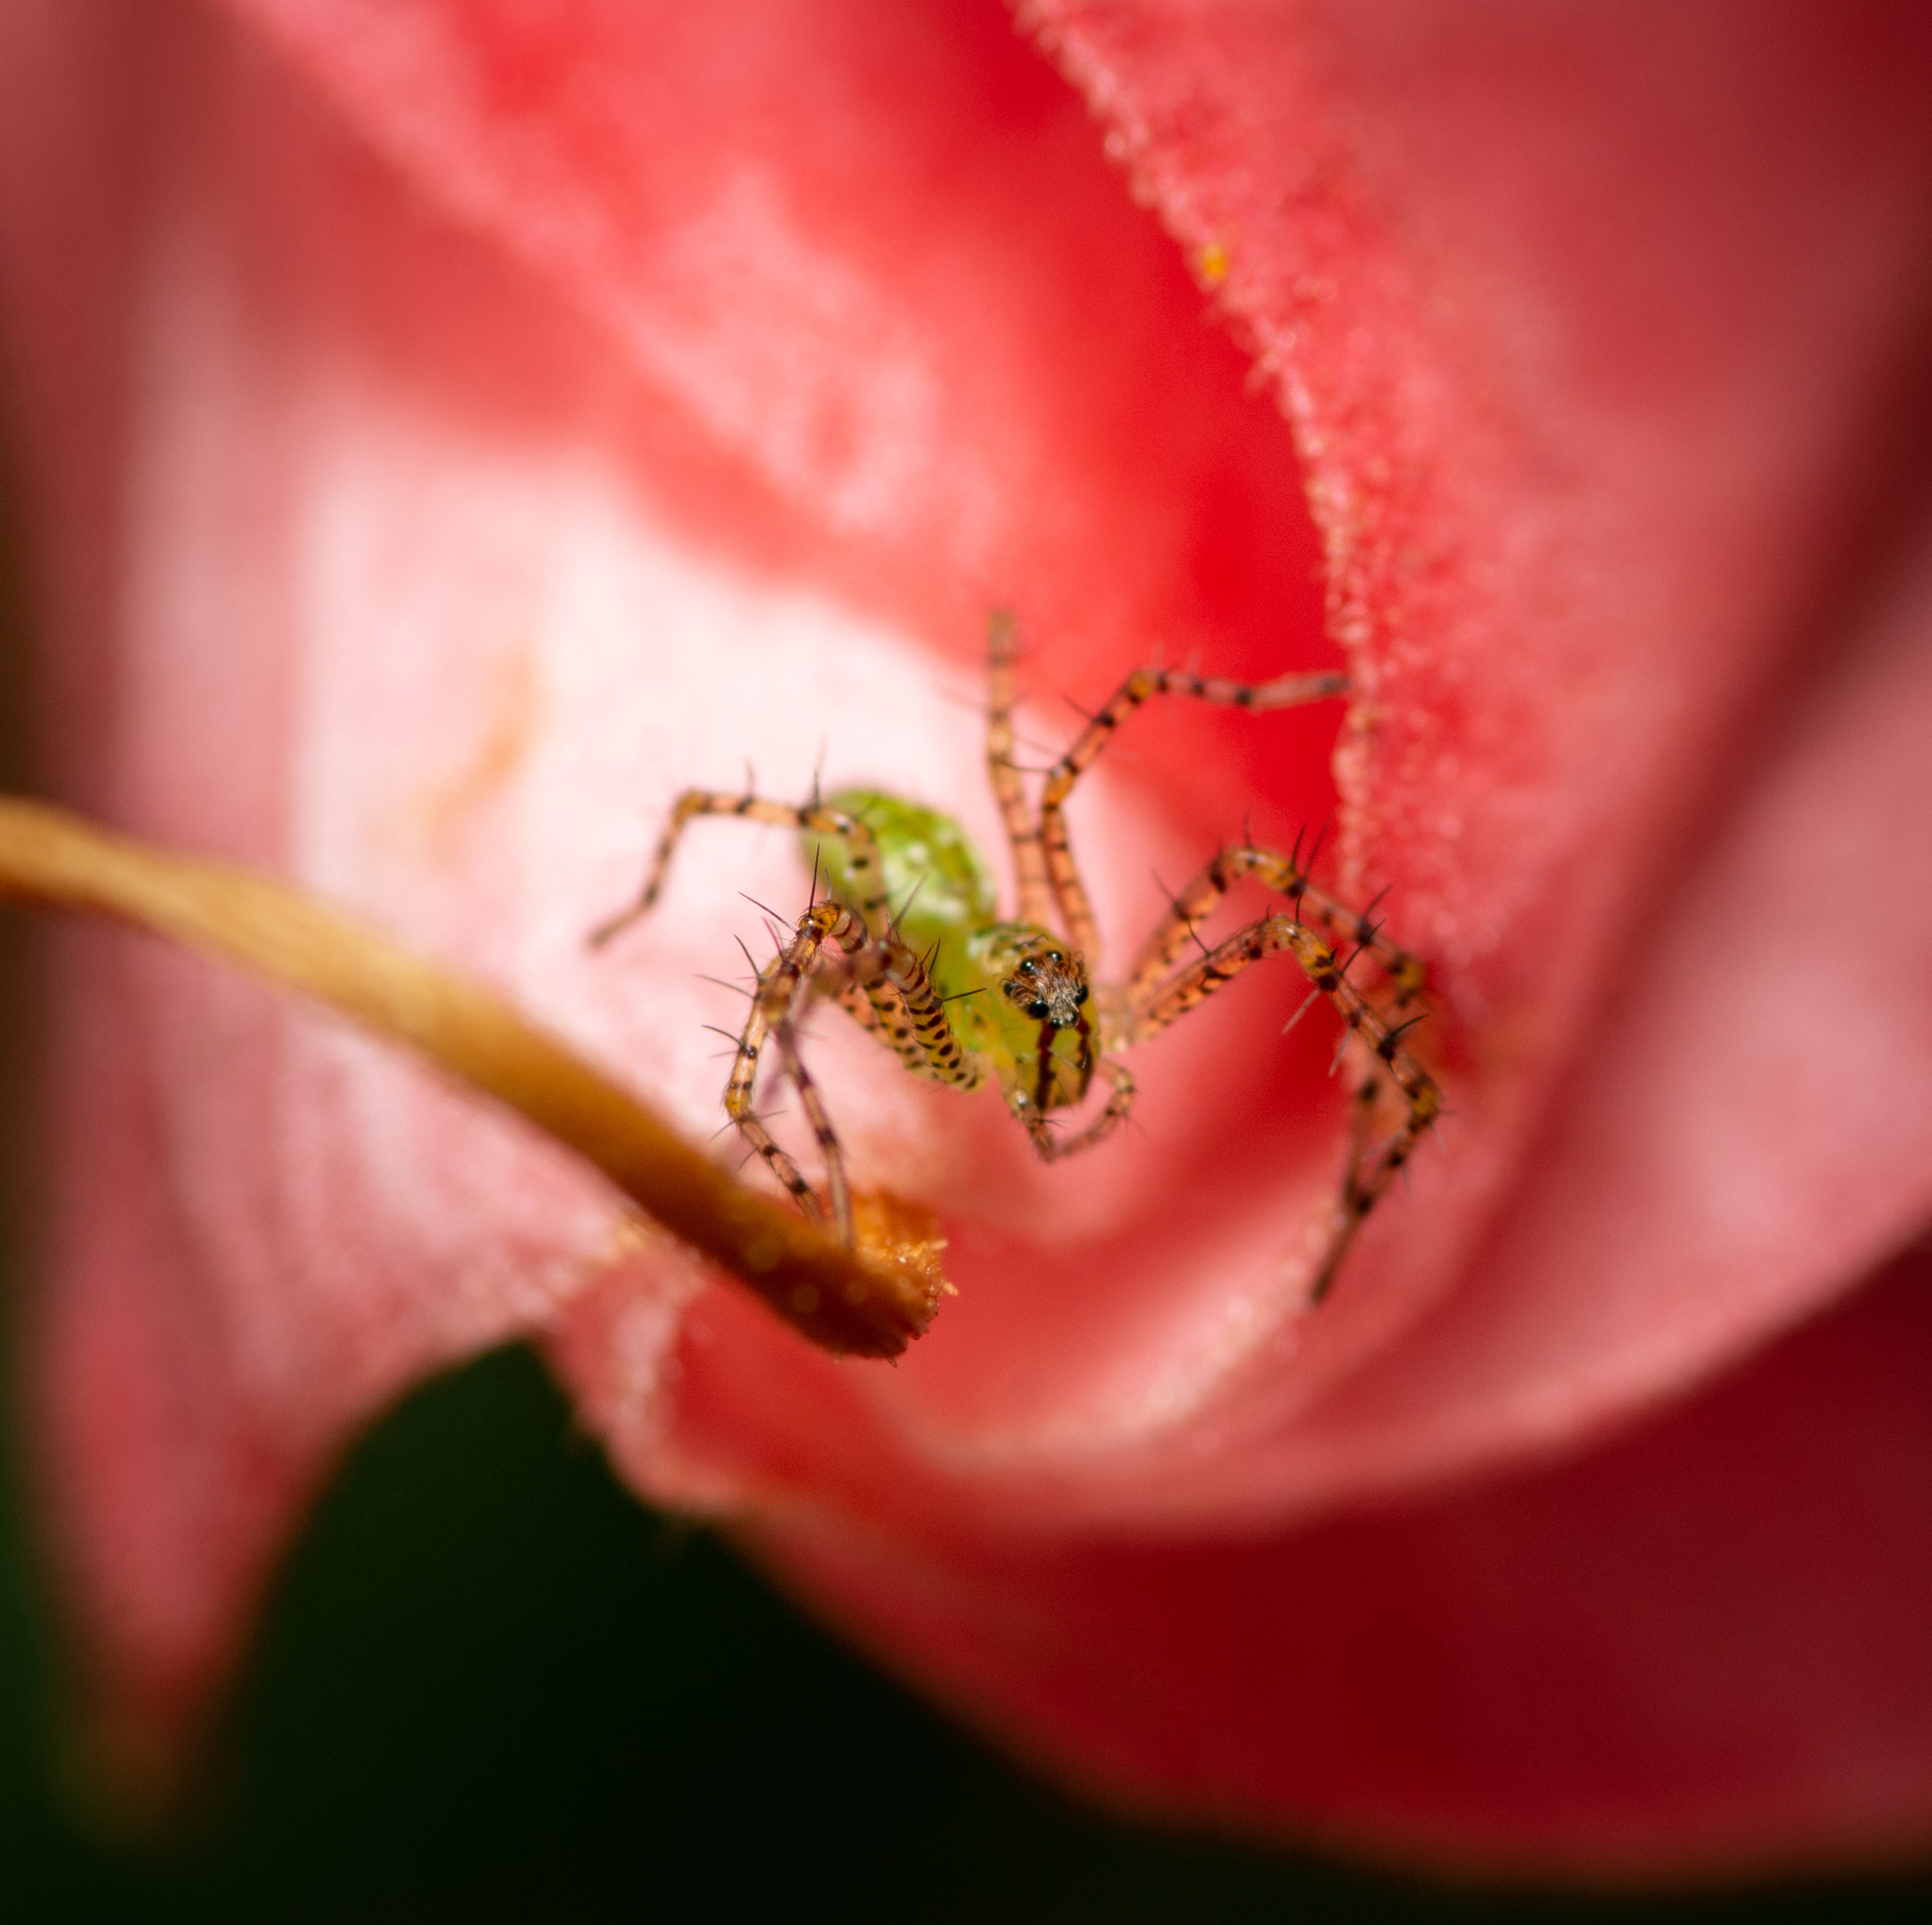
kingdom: Animalia
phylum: Arthropoda
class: Arachnida
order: Araneae
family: Oxyopidae
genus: Peucetia
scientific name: Peucetia viridans
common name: Lynx spiders
